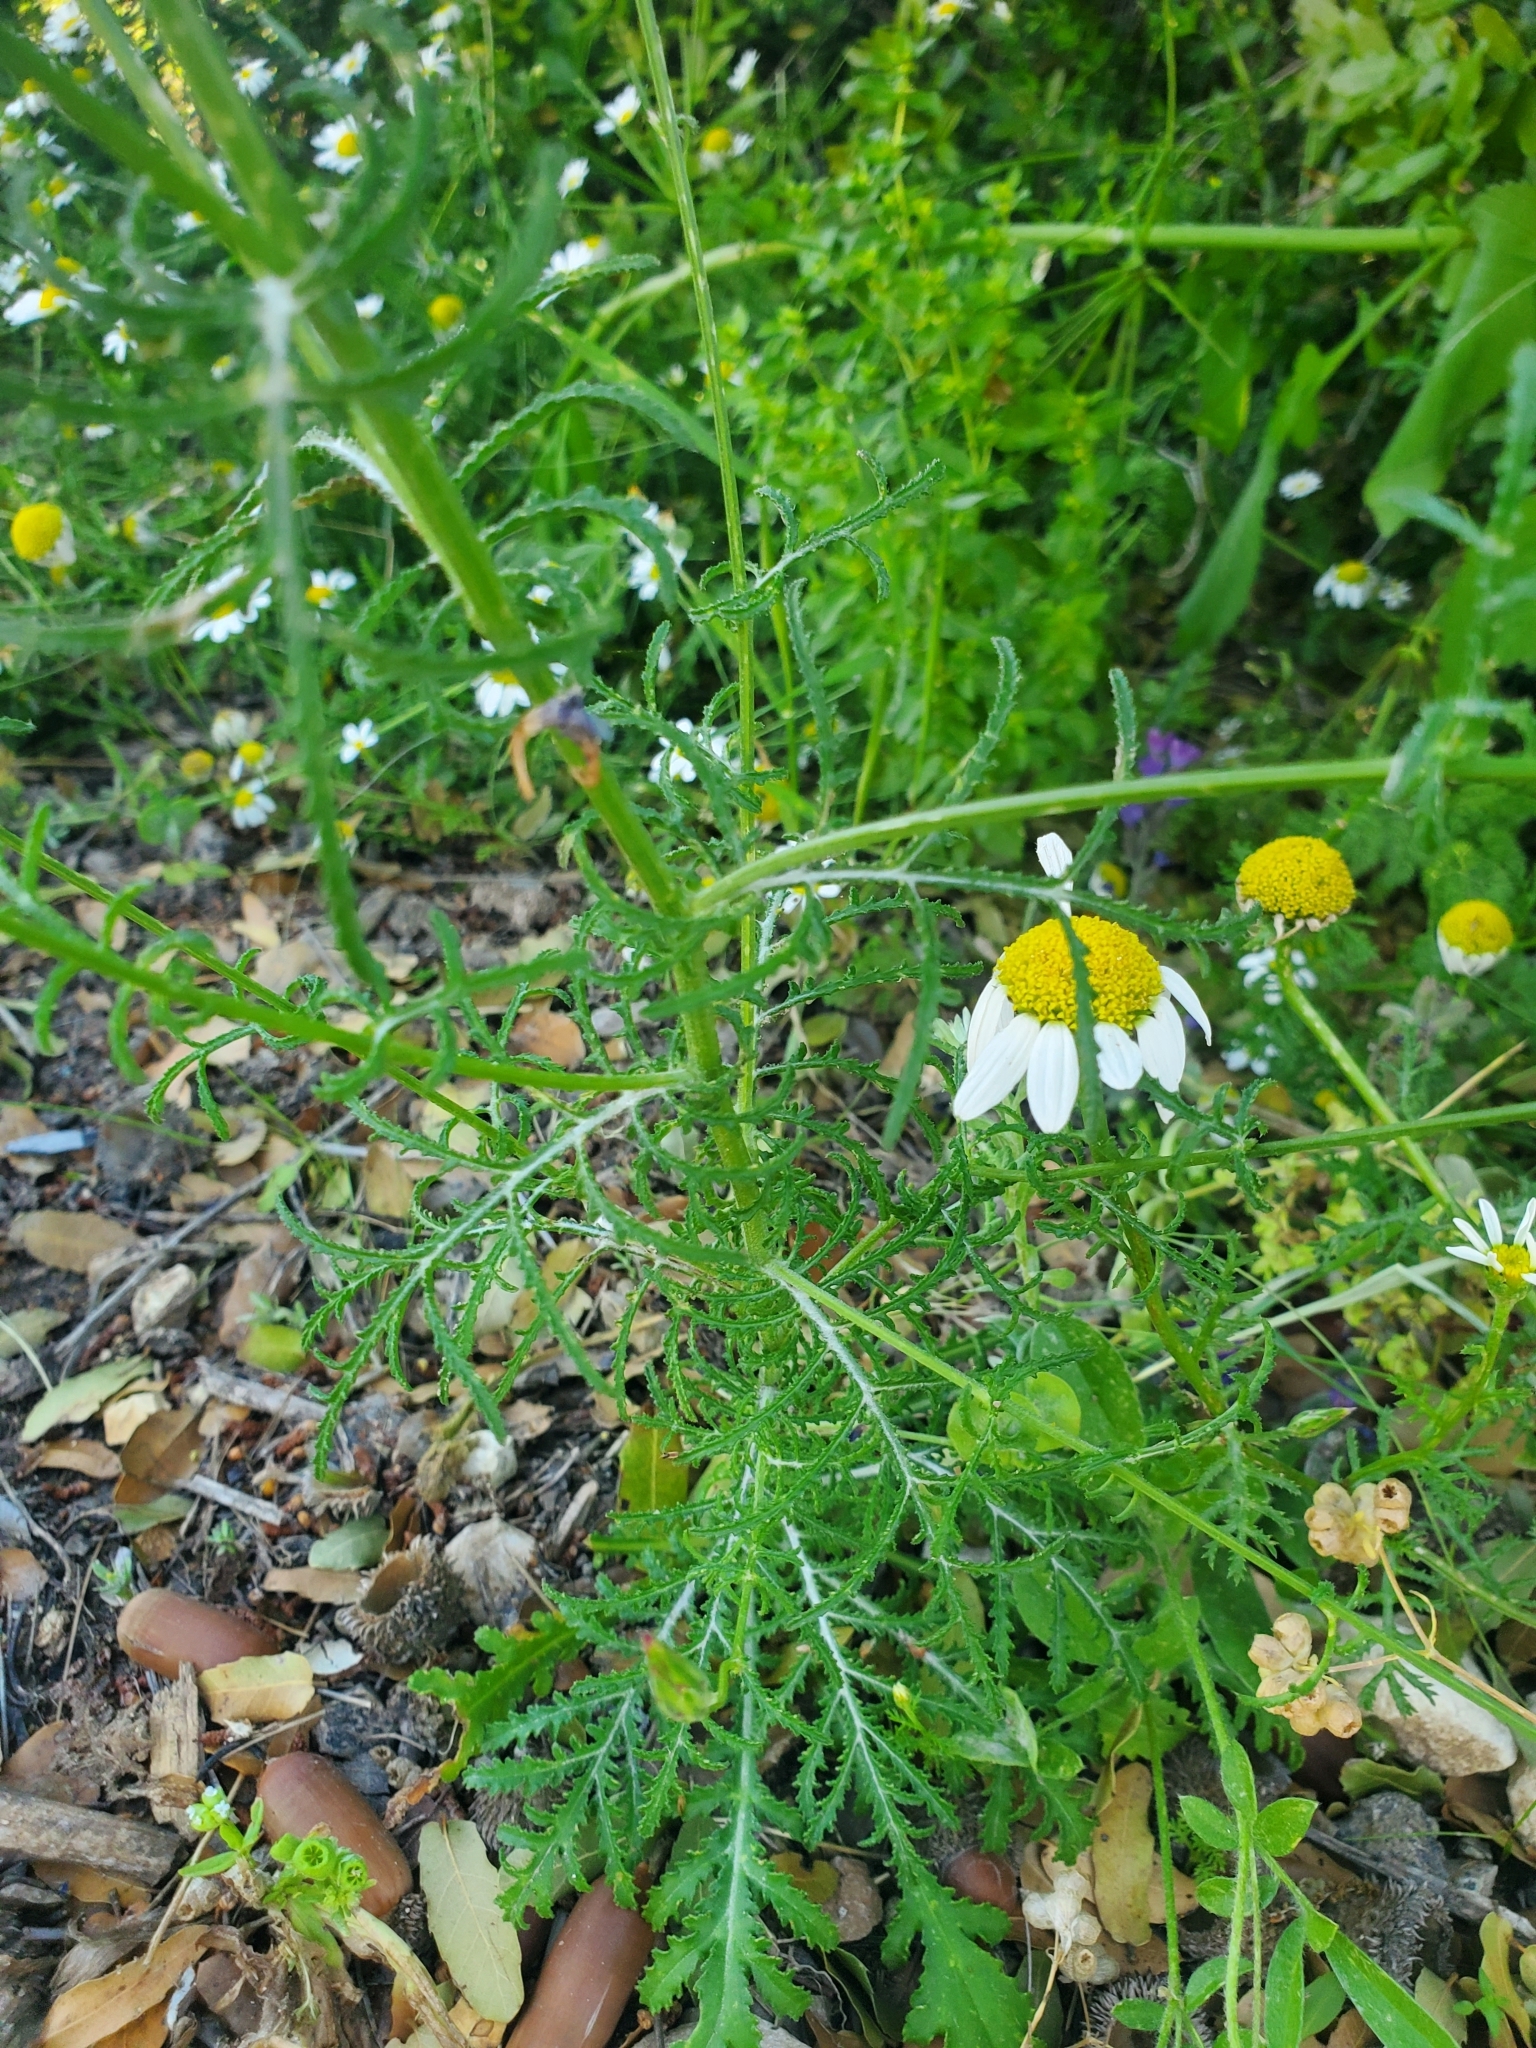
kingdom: Plantae
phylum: Tracheophyta
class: Magnoliopsida
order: Asterales
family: Asteraceae
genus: Crupina
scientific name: Crupina crupinastrum
